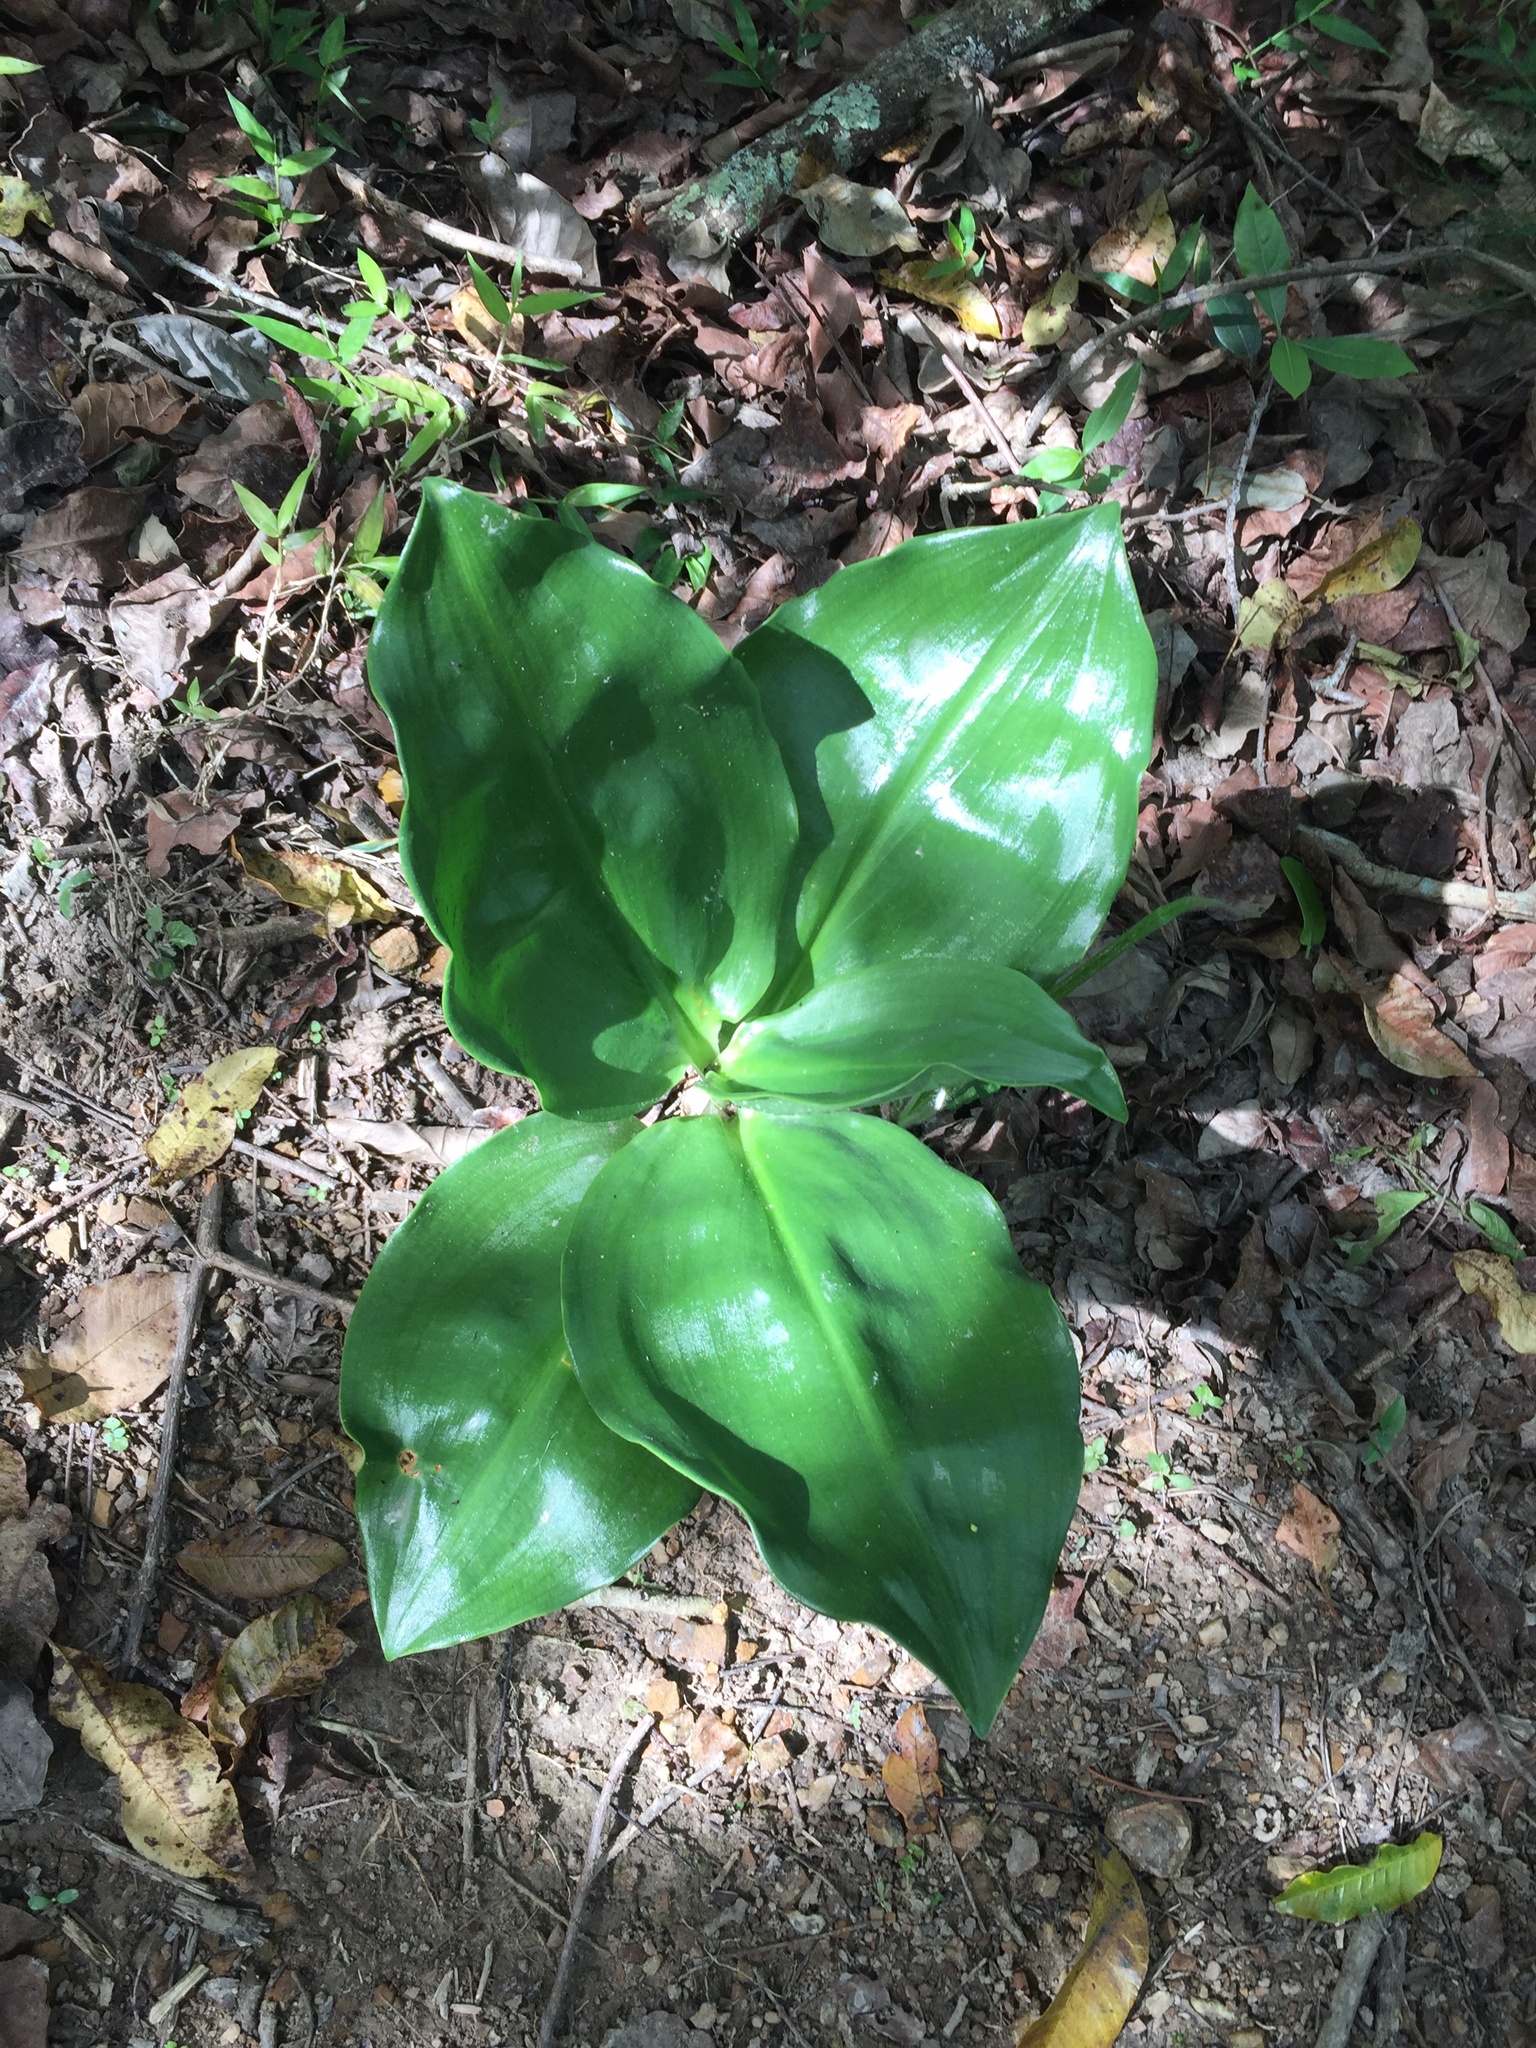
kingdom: Plantae
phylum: Tracheophyta
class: Liliopsida
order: Asparagales
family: Amaryllidaceae
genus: Scadoxus
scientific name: Scadoxus puniceus
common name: Royal-paintbrush
